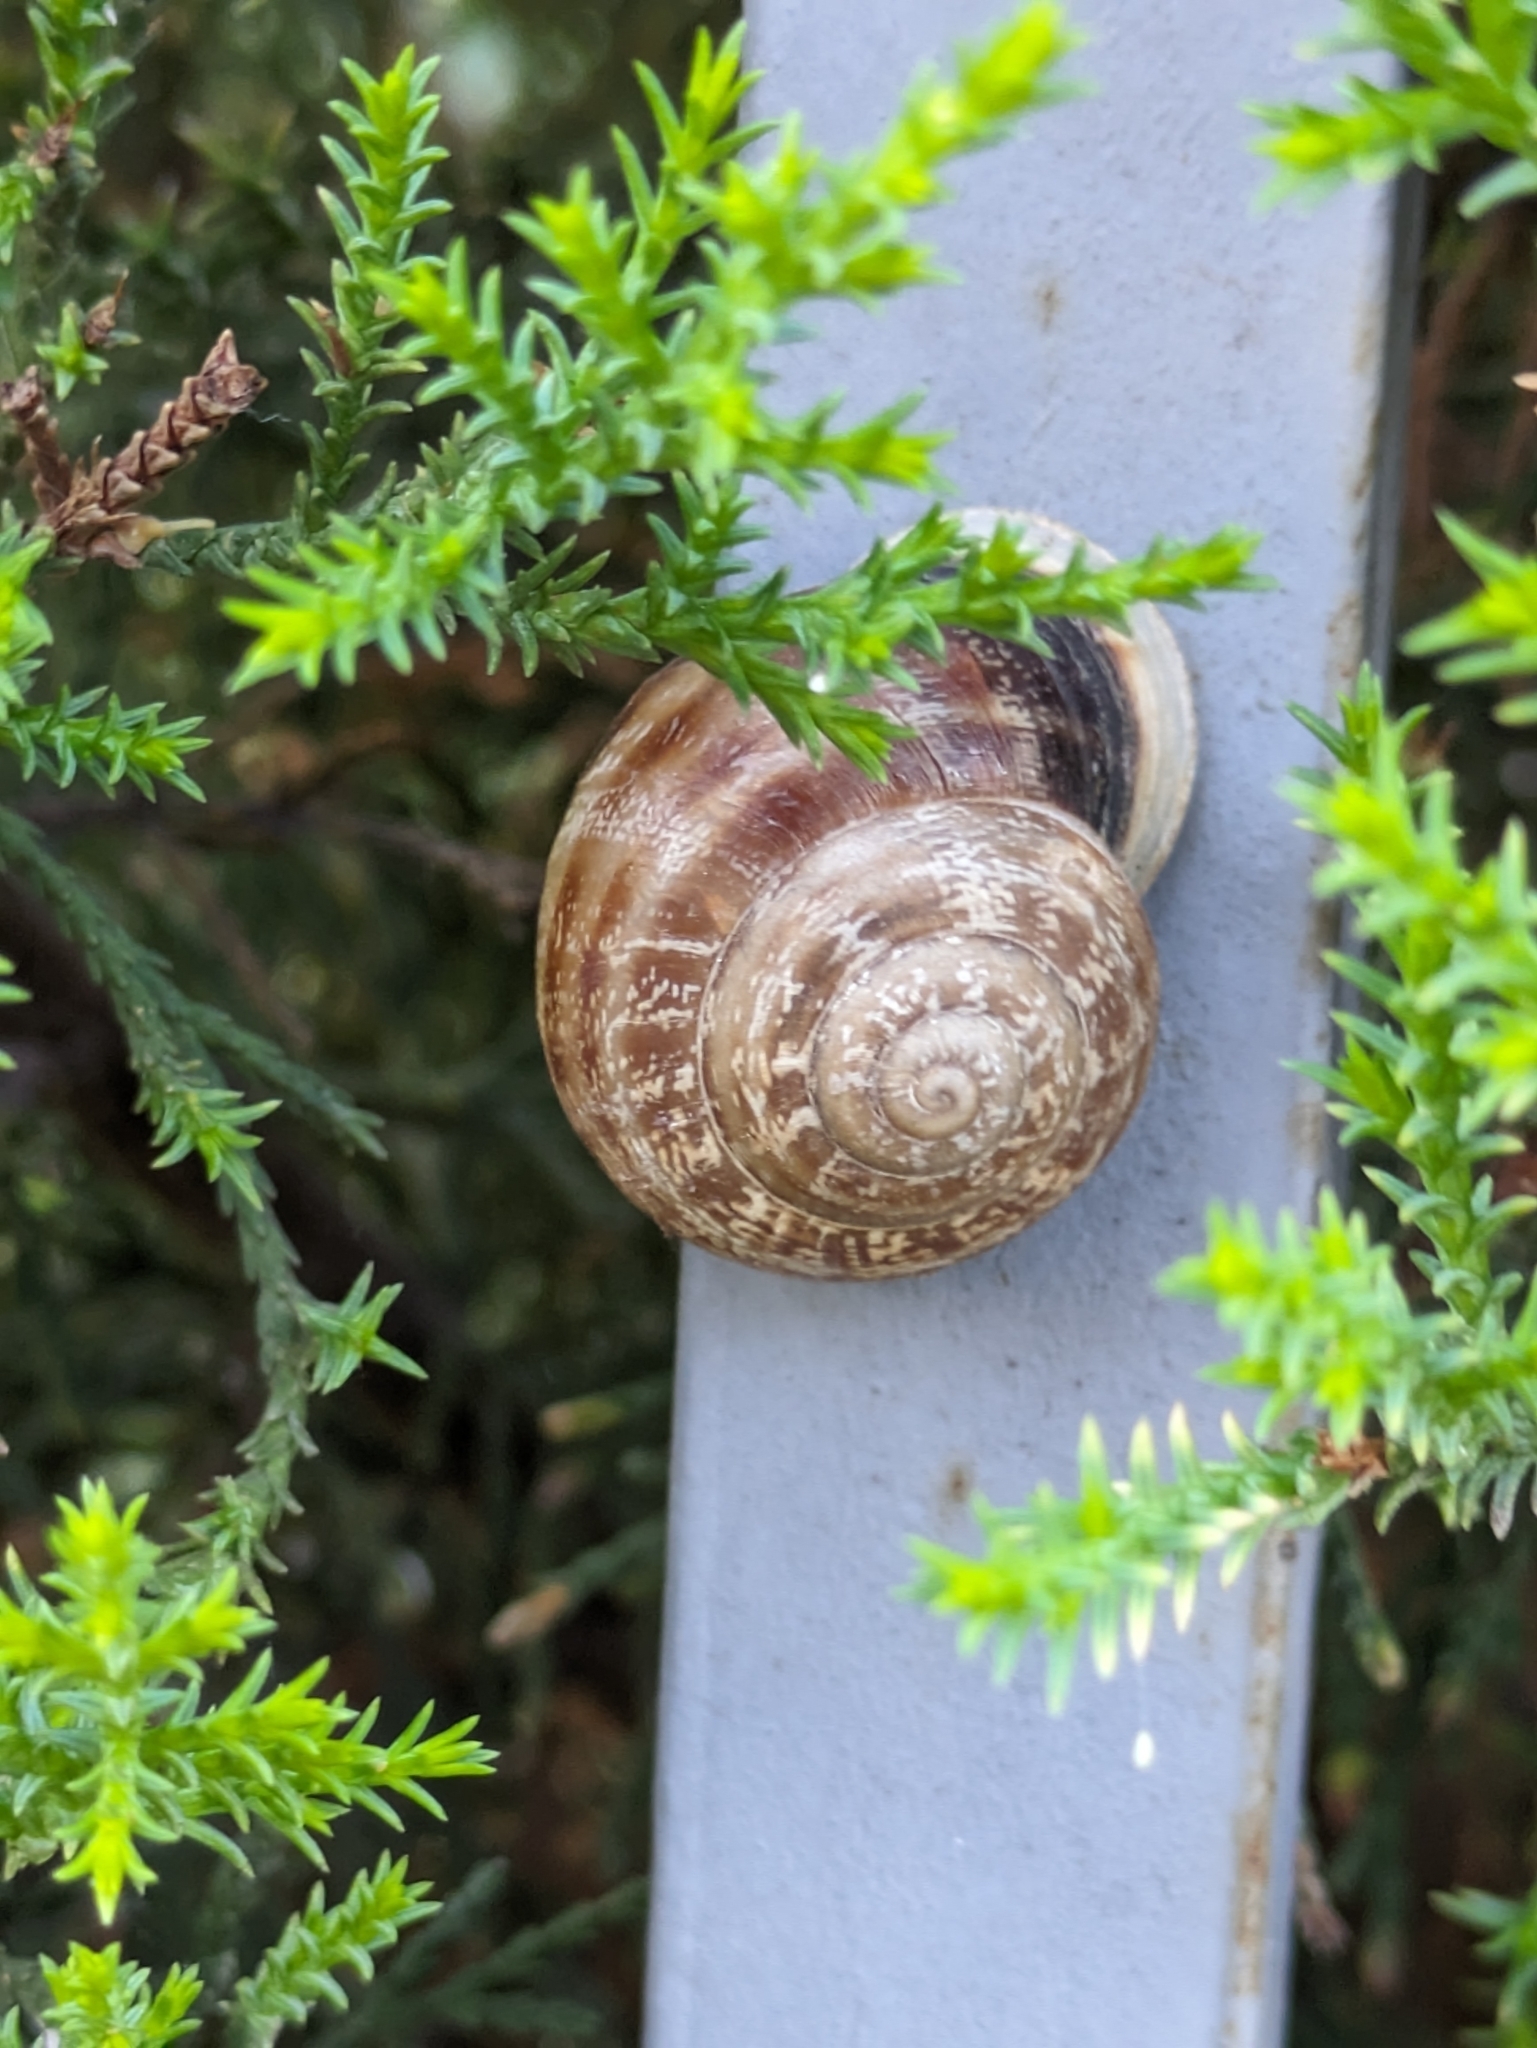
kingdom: Animalia
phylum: Mollusca
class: Gastropoda
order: Stylommatophora
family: Helicidae
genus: Eobania
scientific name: Eobania vermiculata
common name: Chocolateband snail
